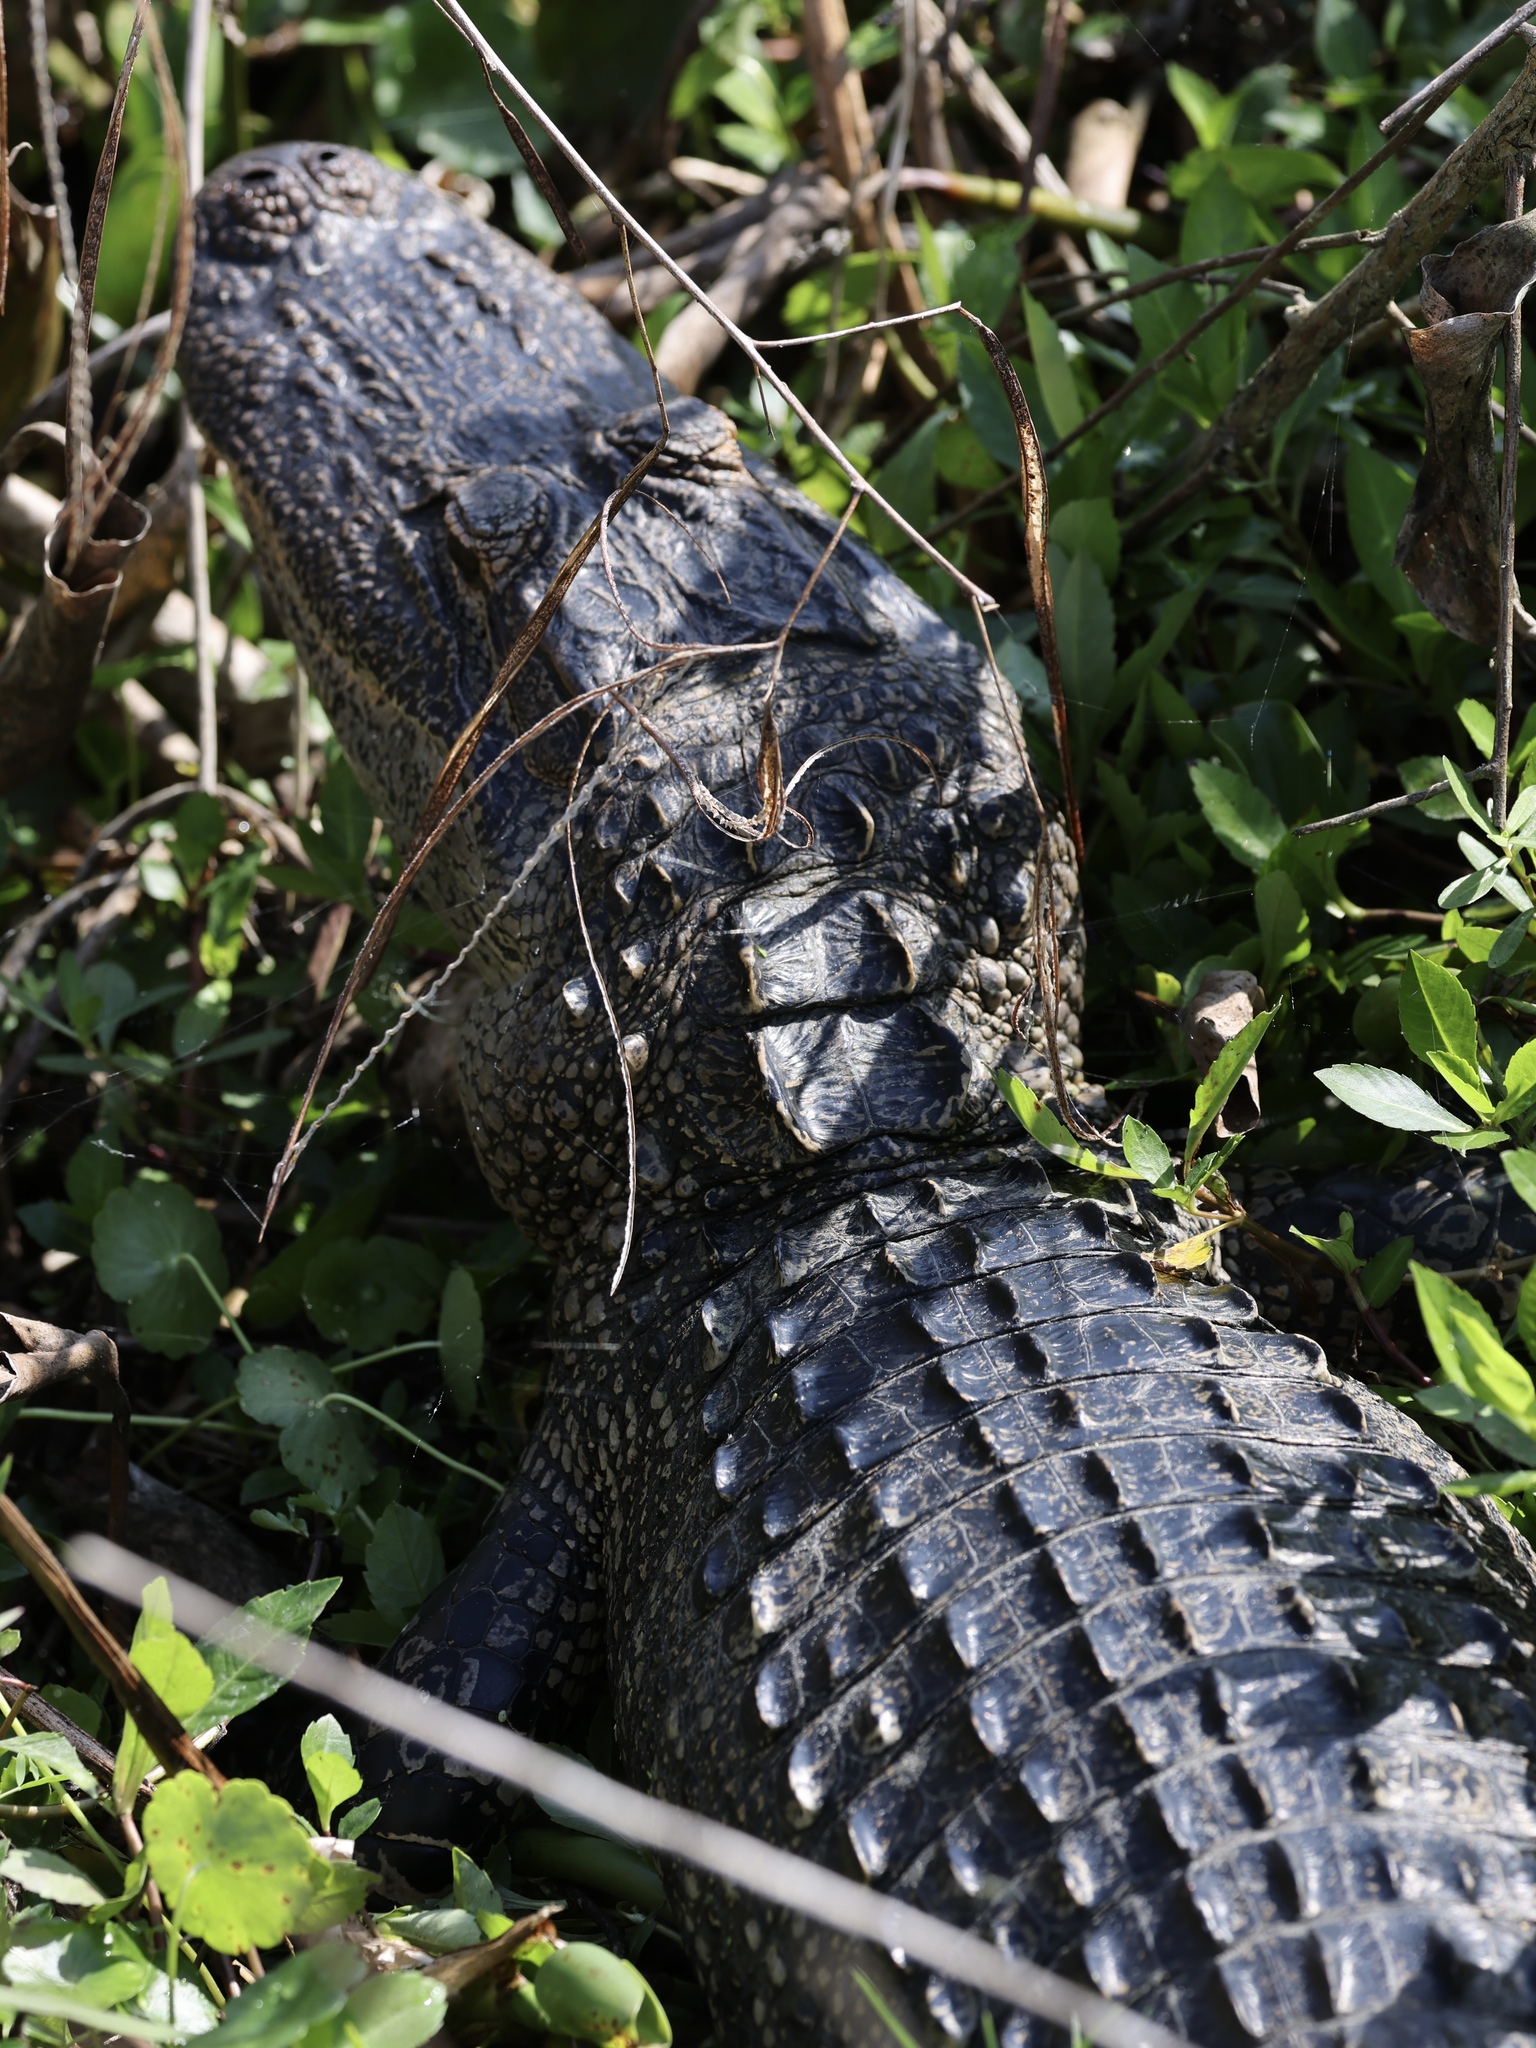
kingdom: Animalia
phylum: Chordata
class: Crocodylia
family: Alligatoridae
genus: Alligator
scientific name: Alligator mississippiensis
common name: American alligator
